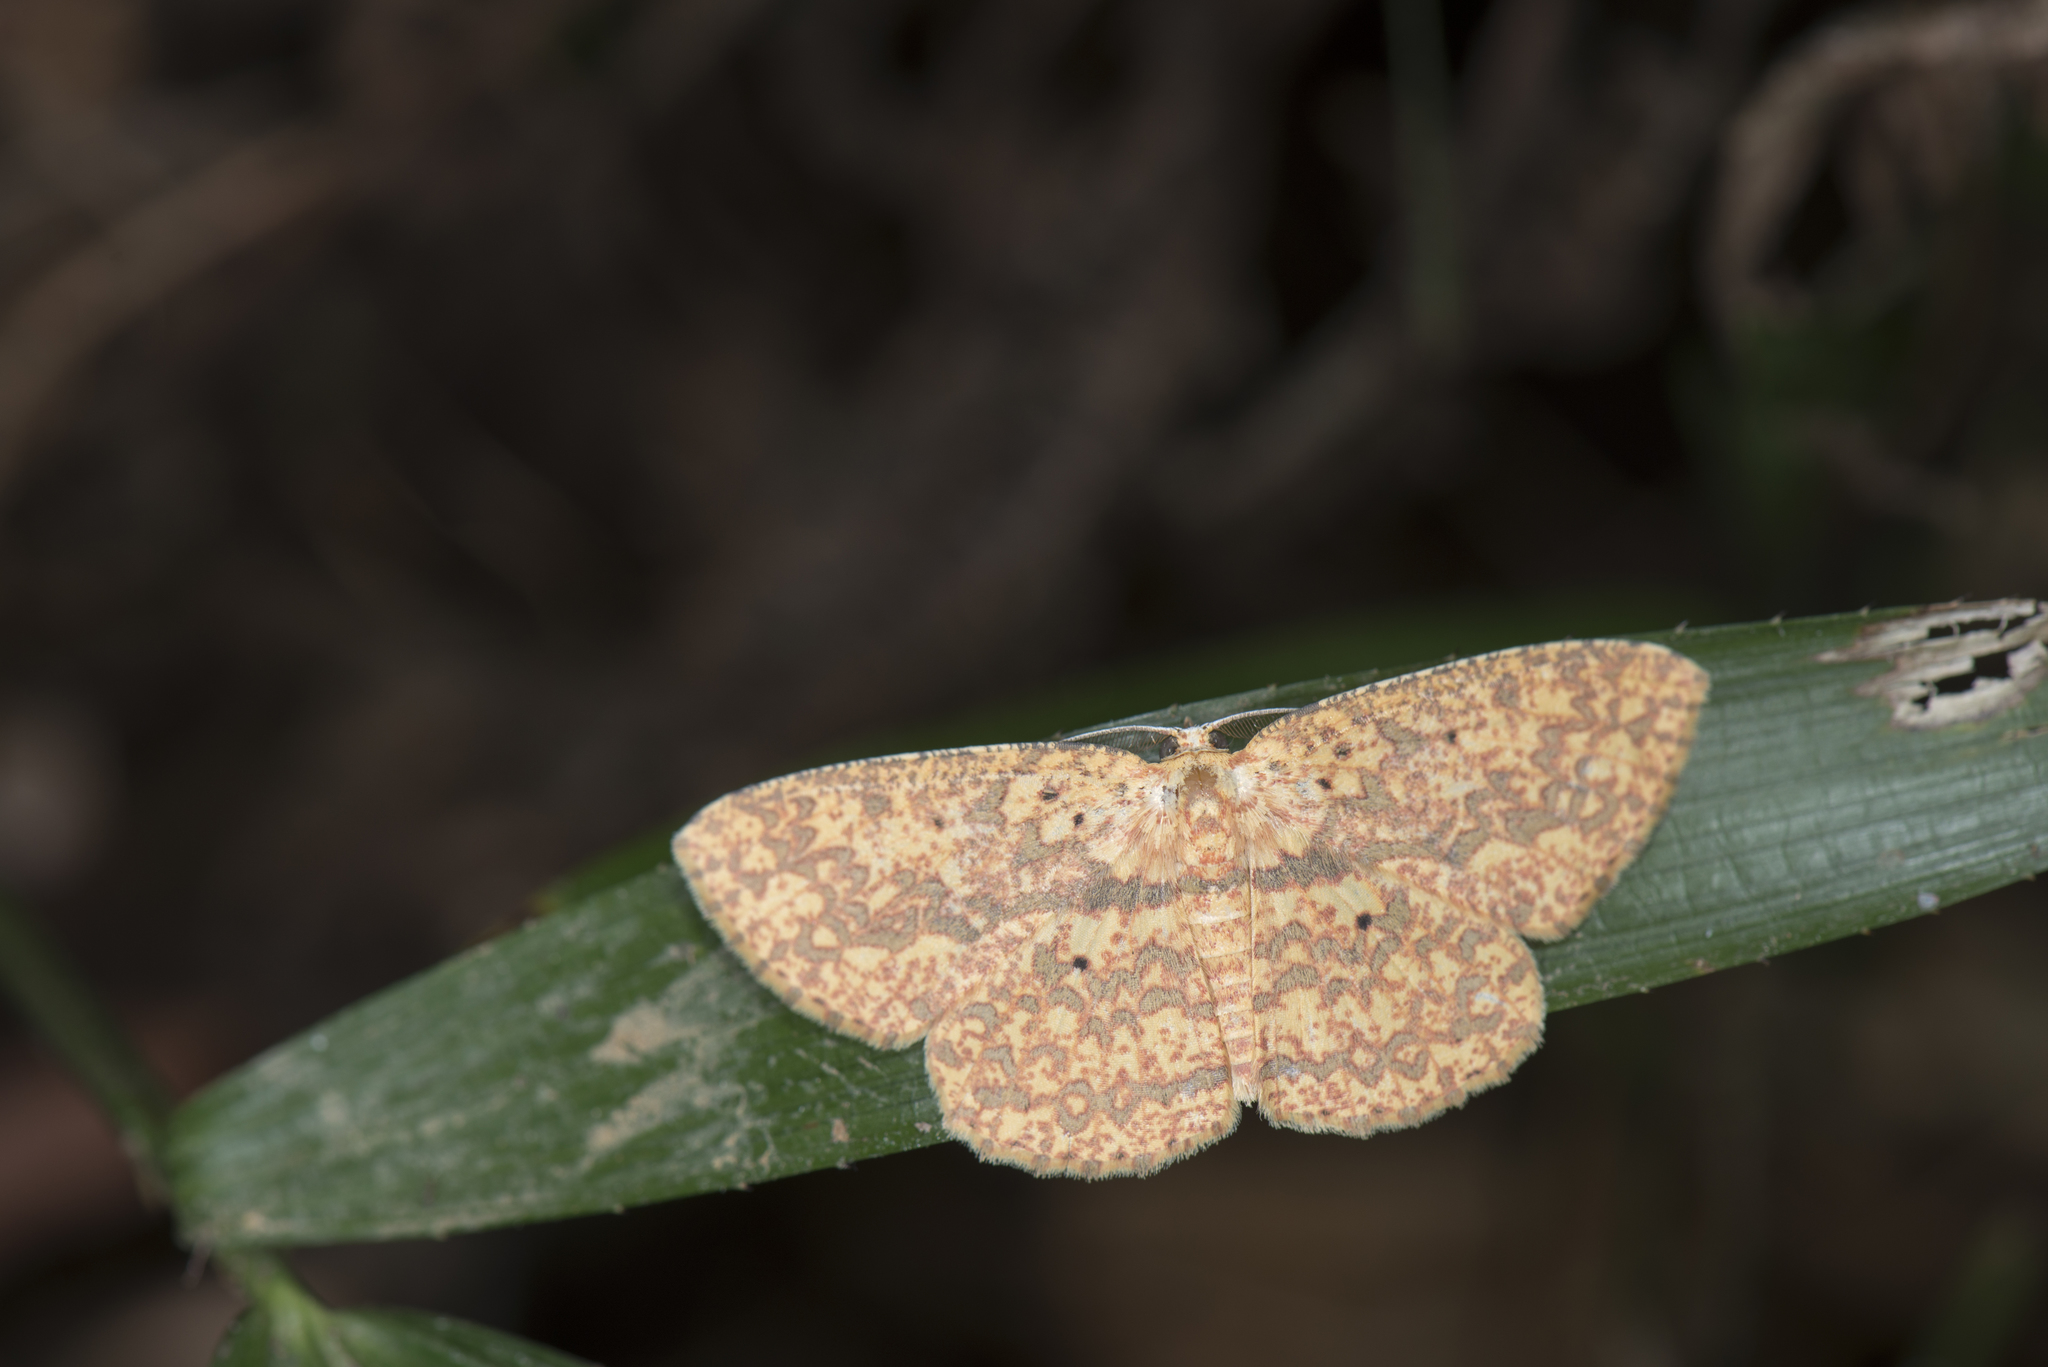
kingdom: Animalia
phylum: Arthropoda
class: Insecta
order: Lepidoptera
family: Geometridae
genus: Borbacha
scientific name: Borbacha pardaria
